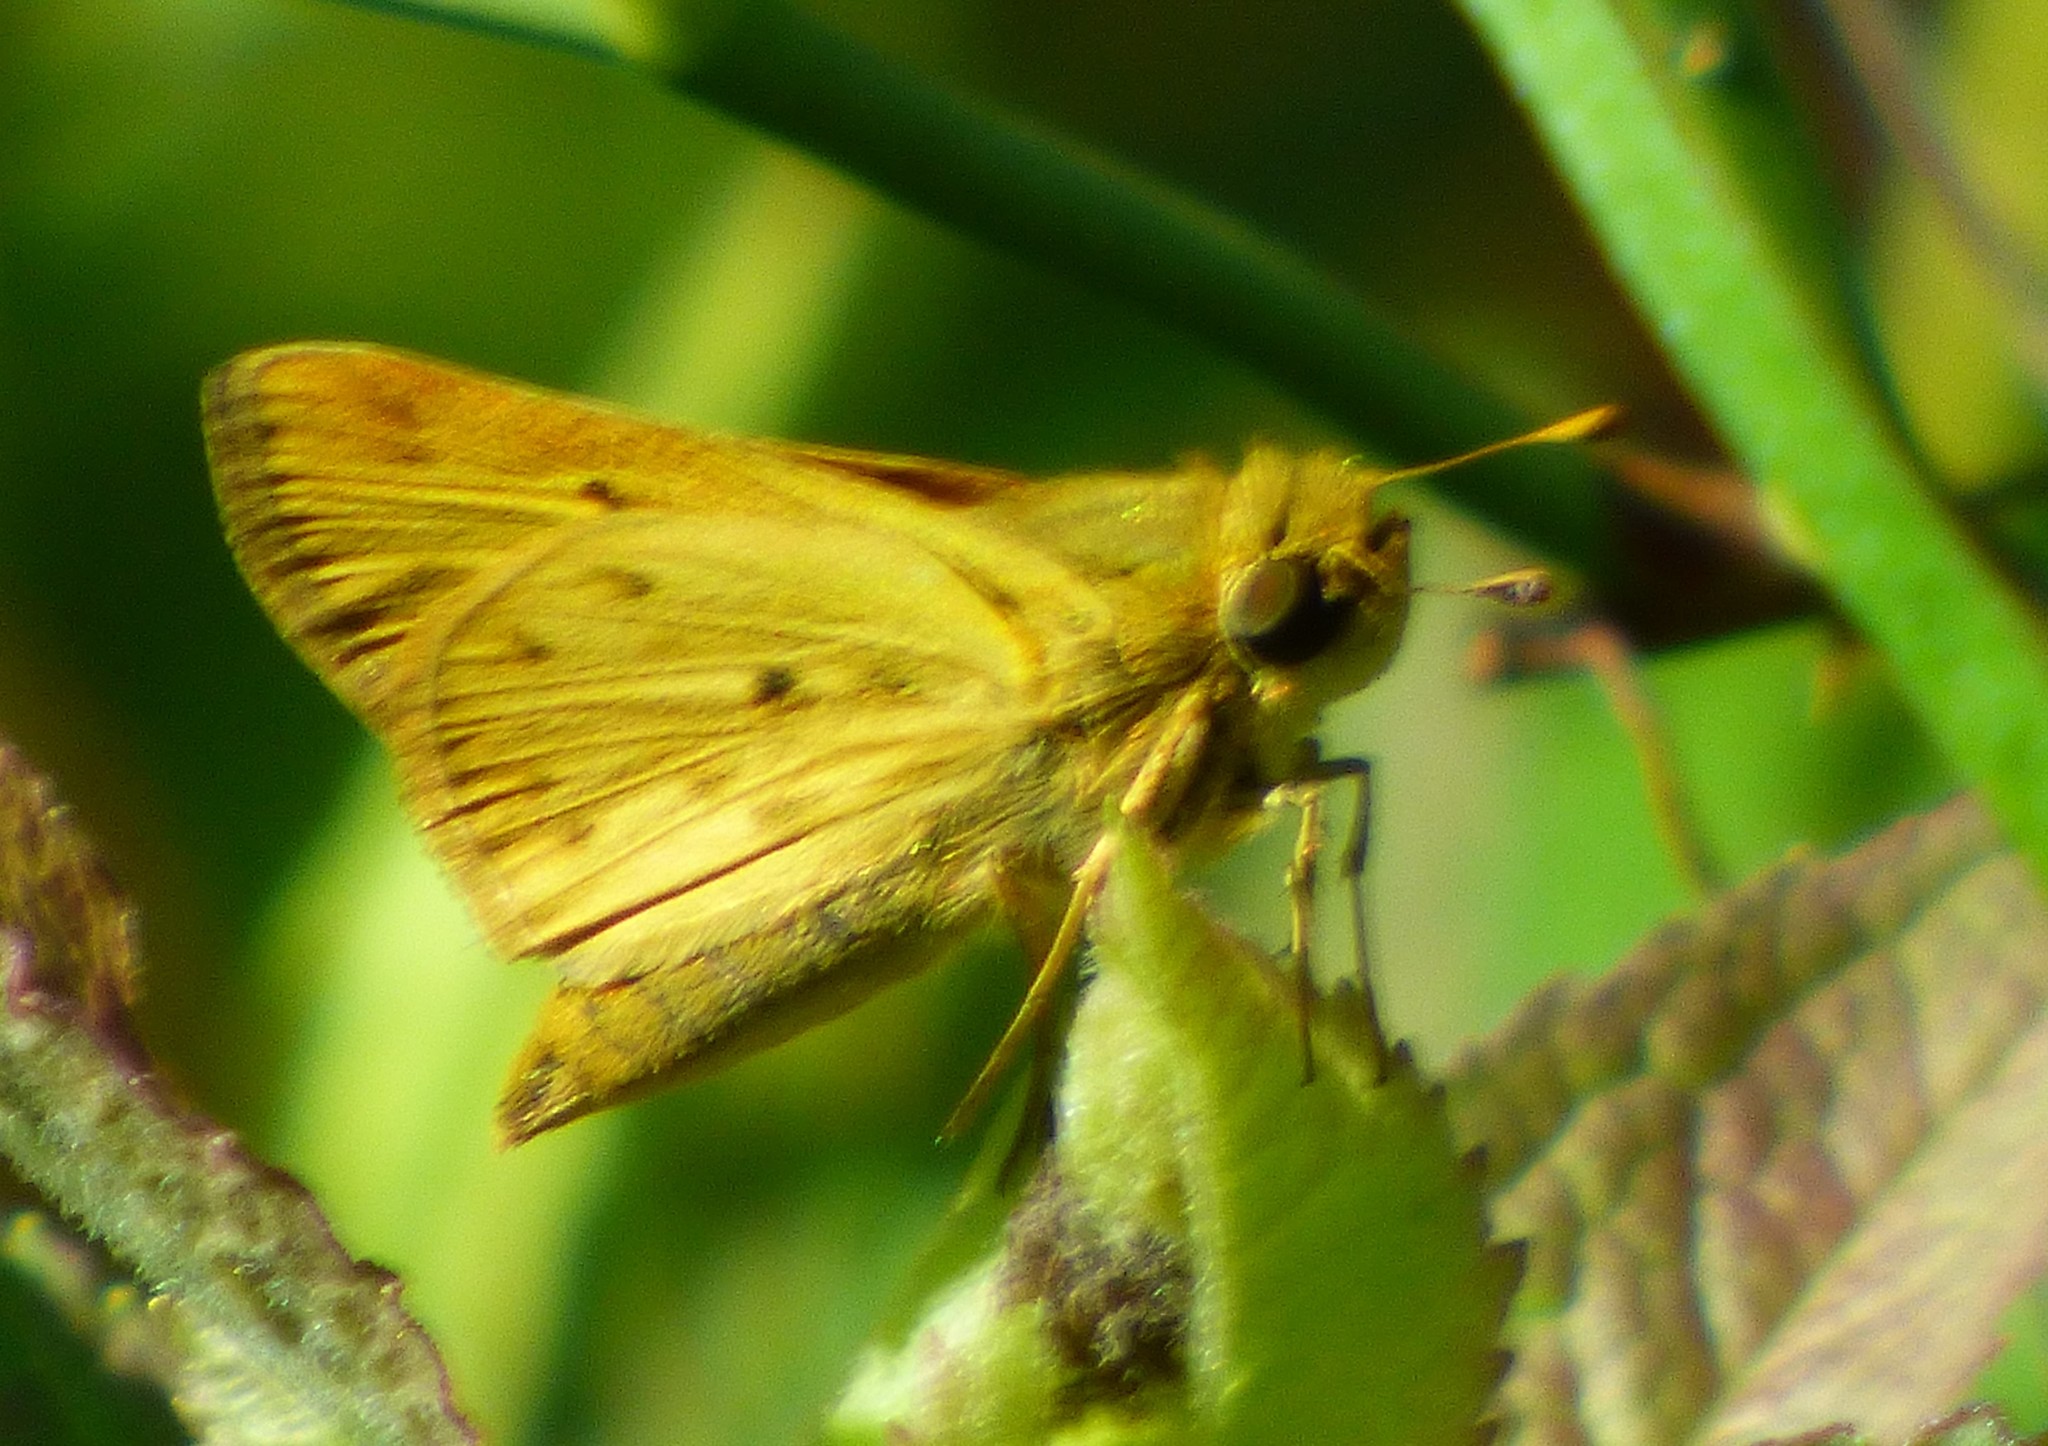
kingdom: Animalia
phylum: Arthropoda
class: Insecta
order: Lepidoptera
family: Hesperiidae
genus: Hylephila
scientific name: Hylephila phyleus
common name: Fiery skipper
